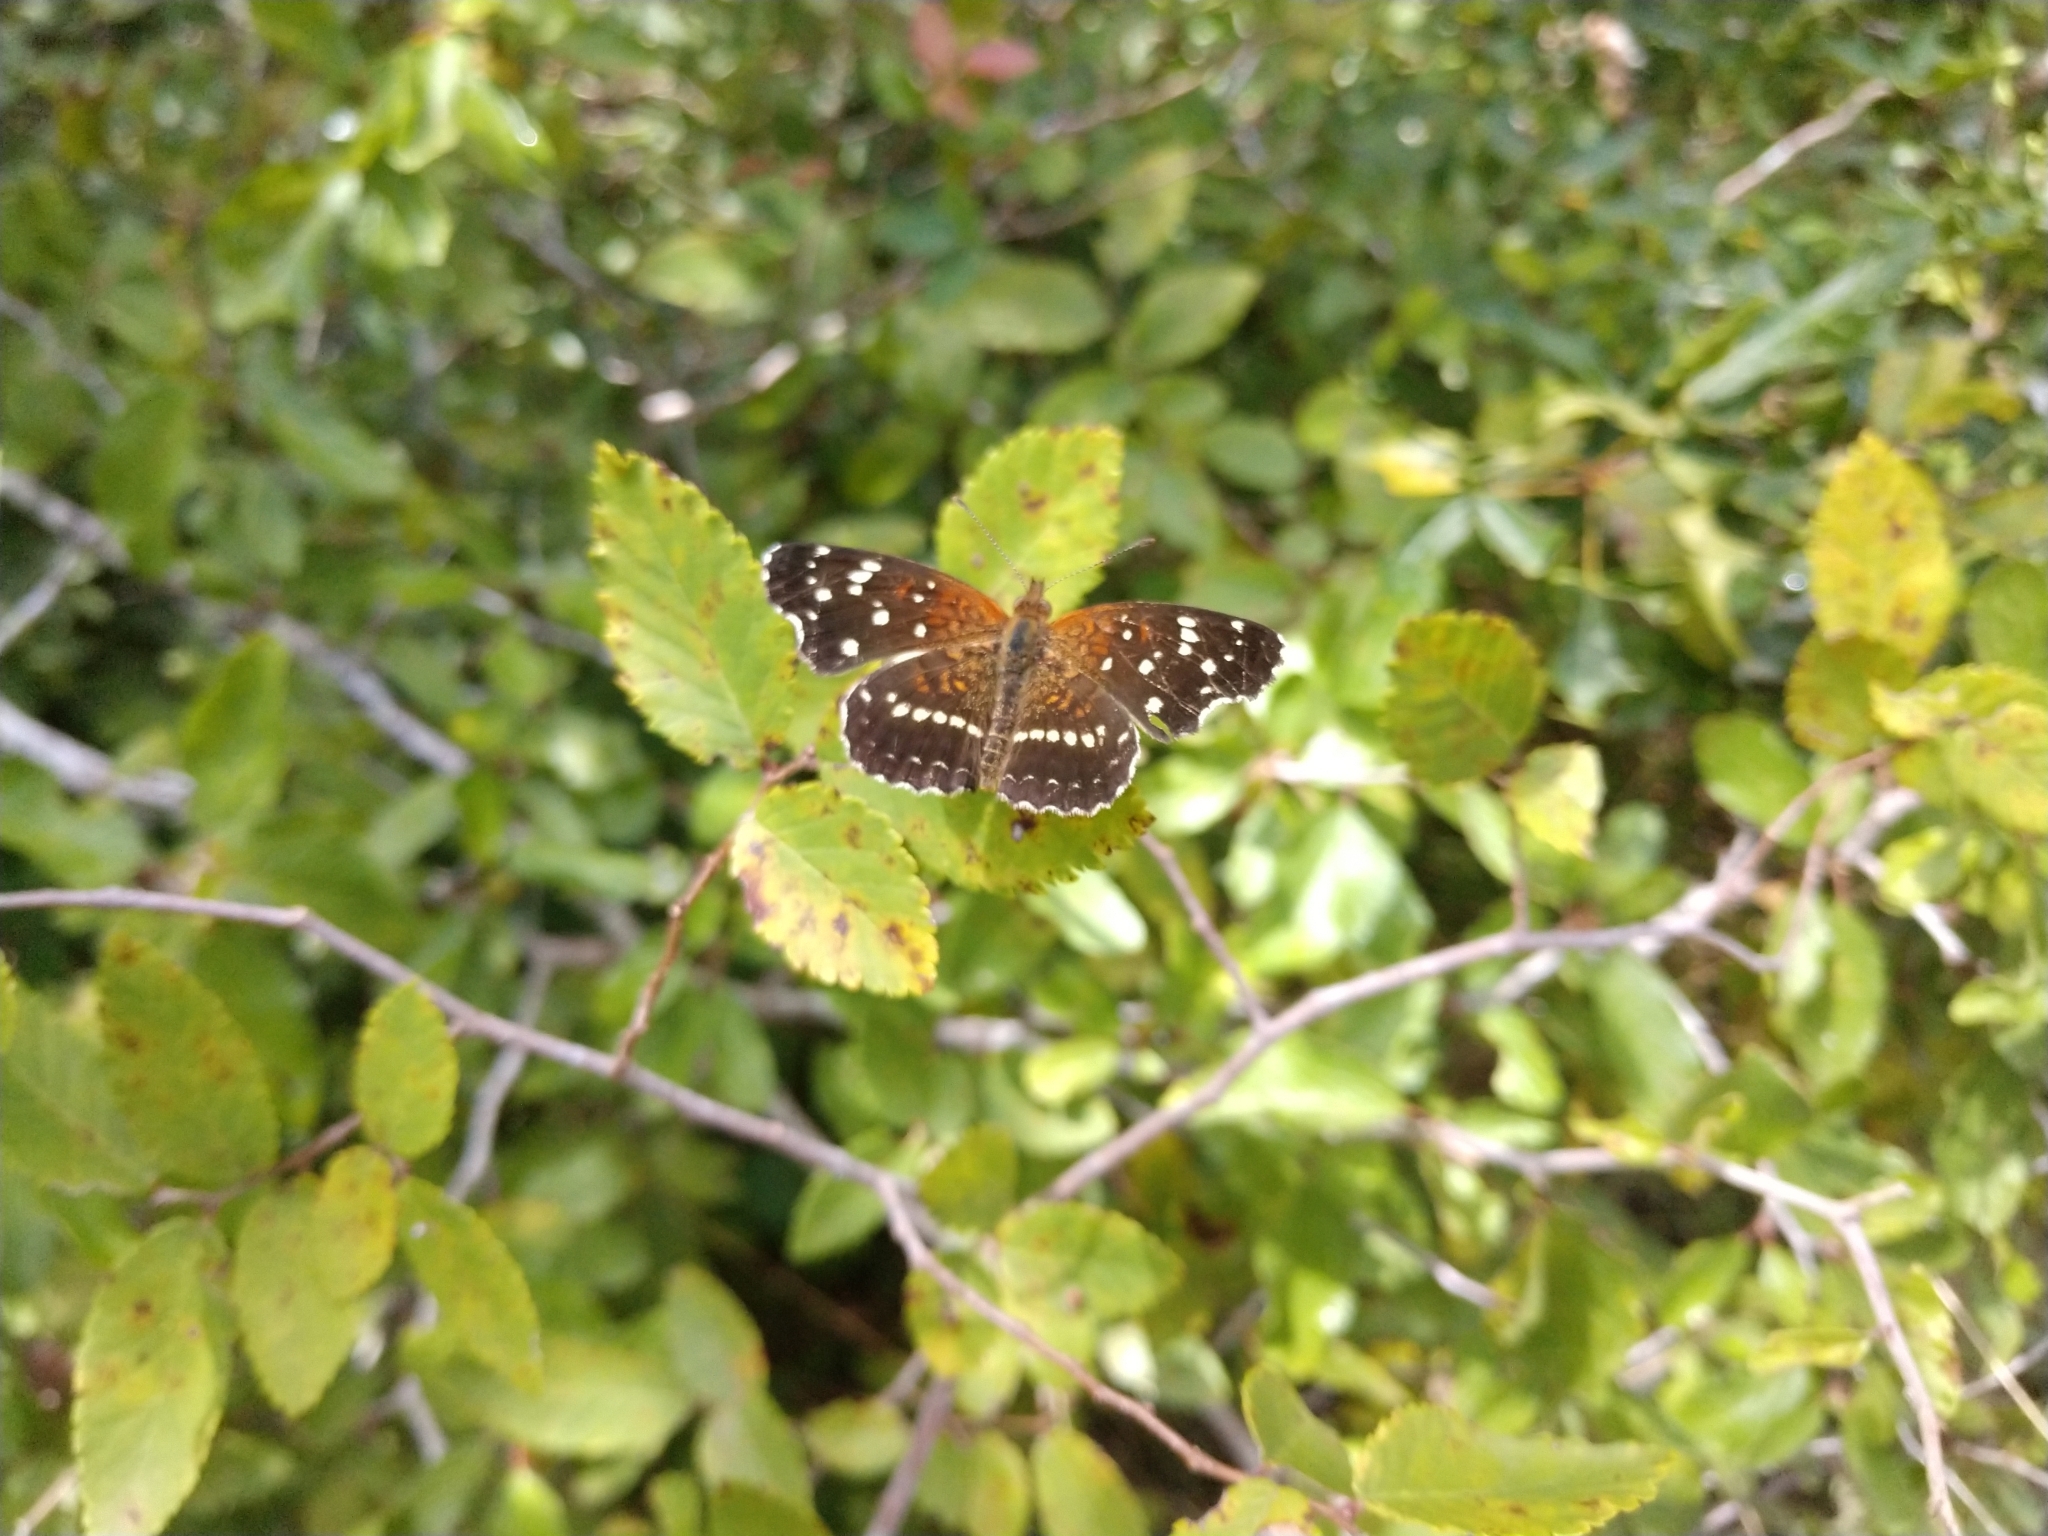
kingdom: Animalia
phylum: Arthropoda
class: Insecta
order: Lepidoptera
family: Nymphalidae
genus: Anthanassa
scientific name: Anthanassa texana
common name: Texan crescent
